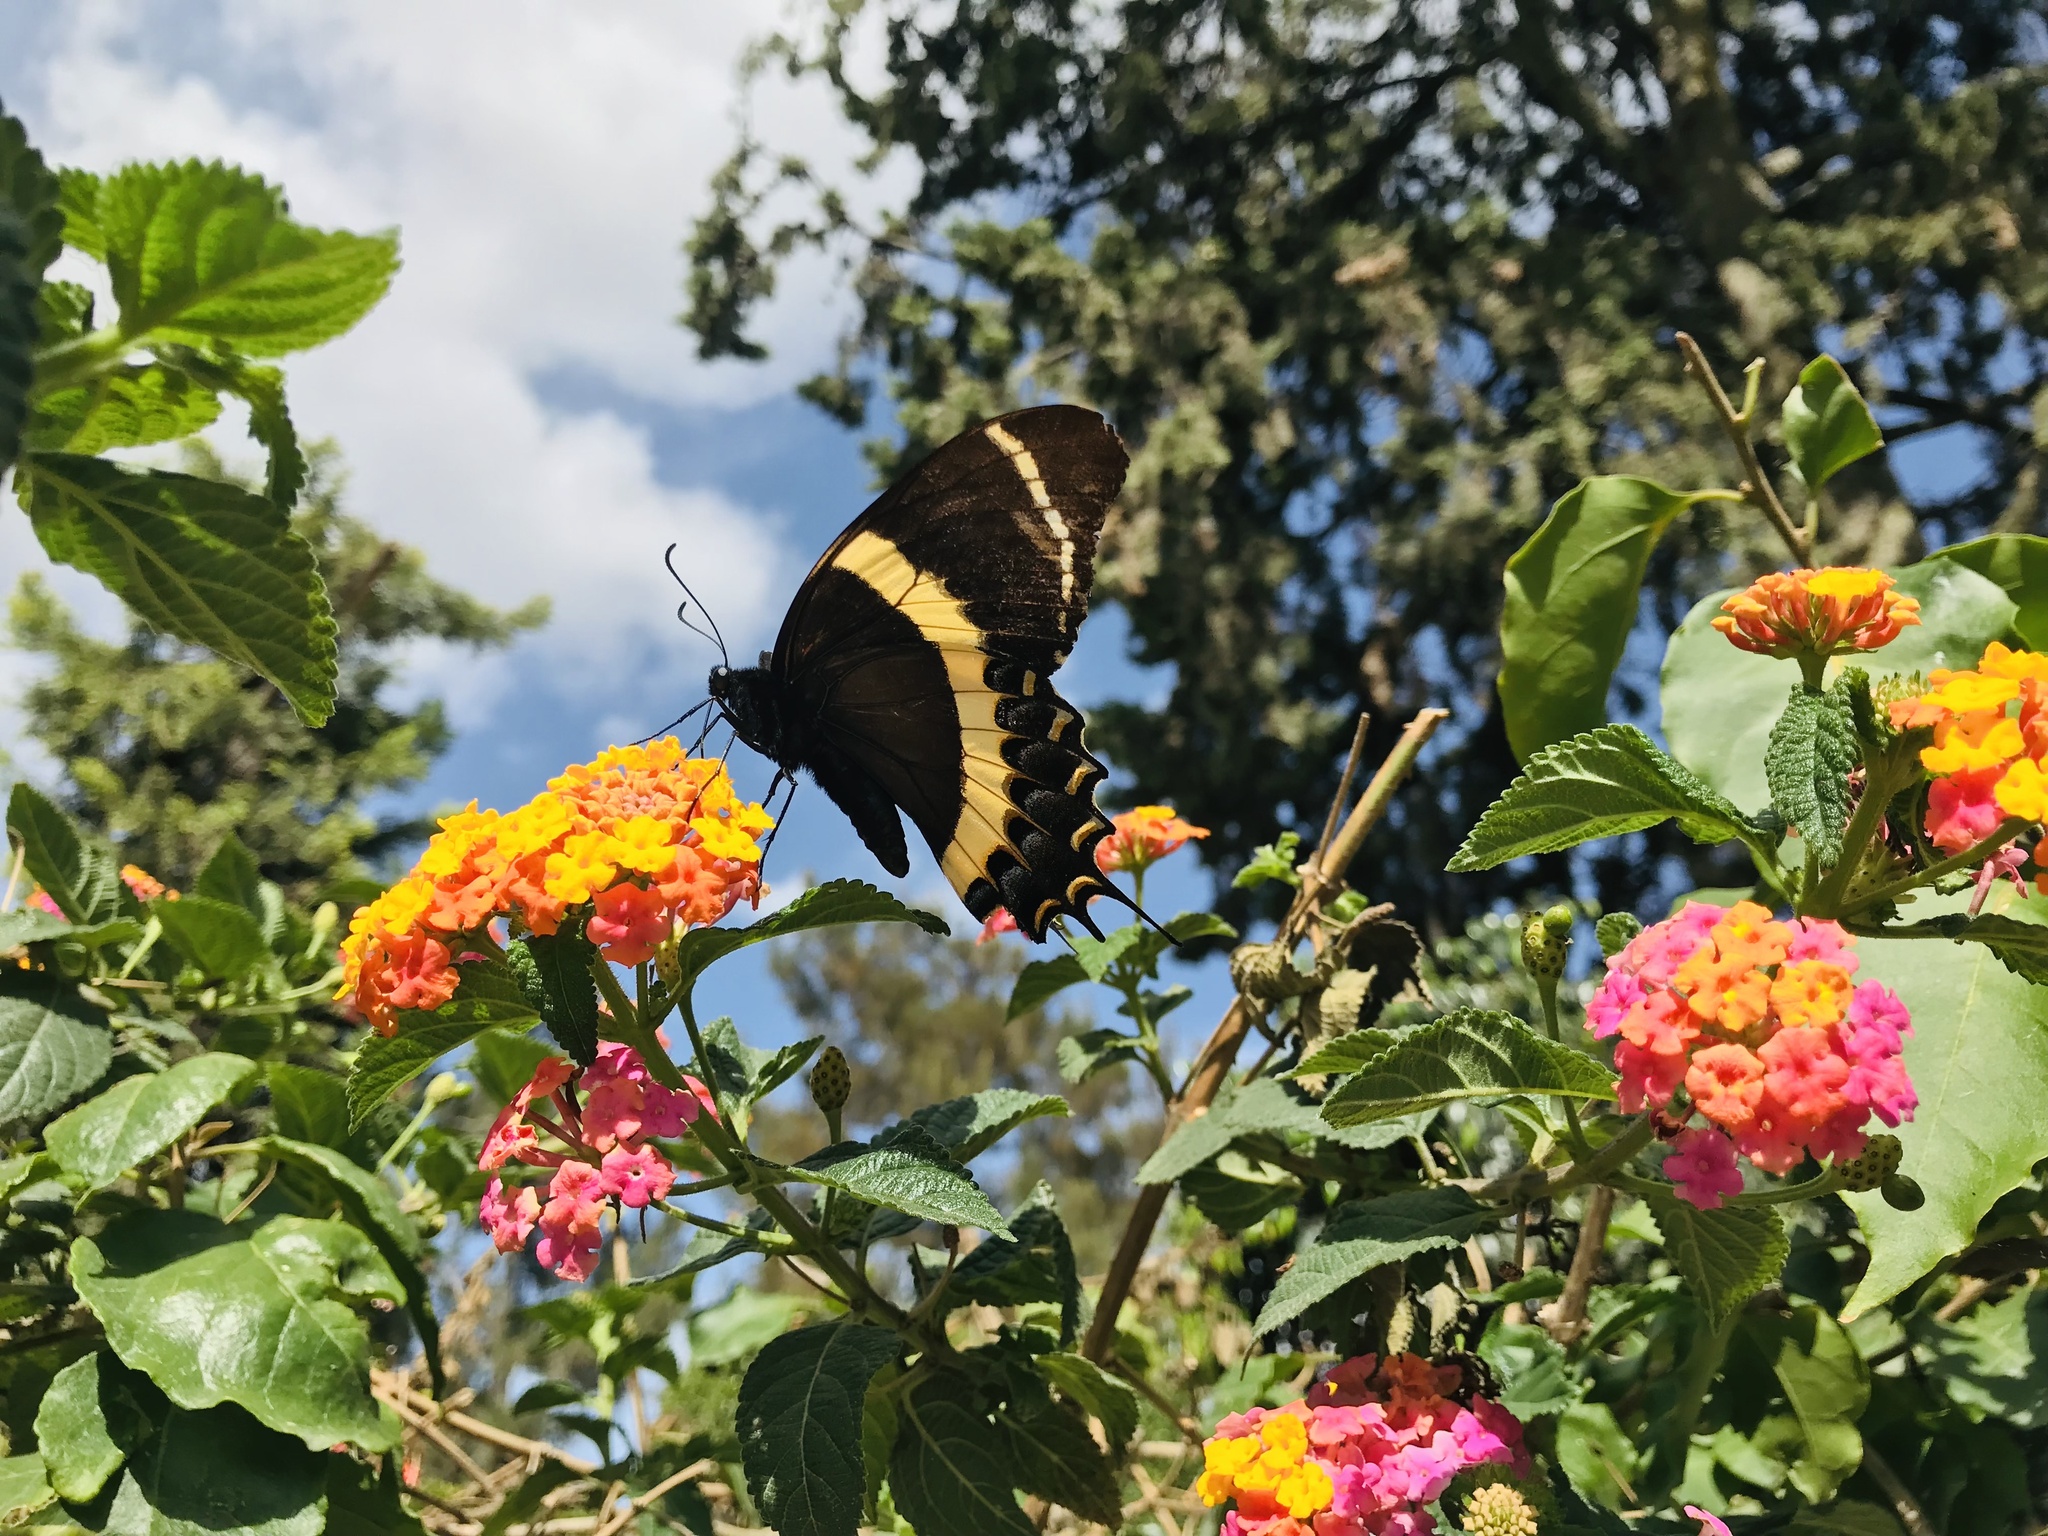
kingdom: Animalia
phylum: Arthropoda
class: Insecta
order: Lepidoptera
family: Papilionidae
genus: Papilio
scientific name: Papilio garamas
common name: Magnificent swallowtail
